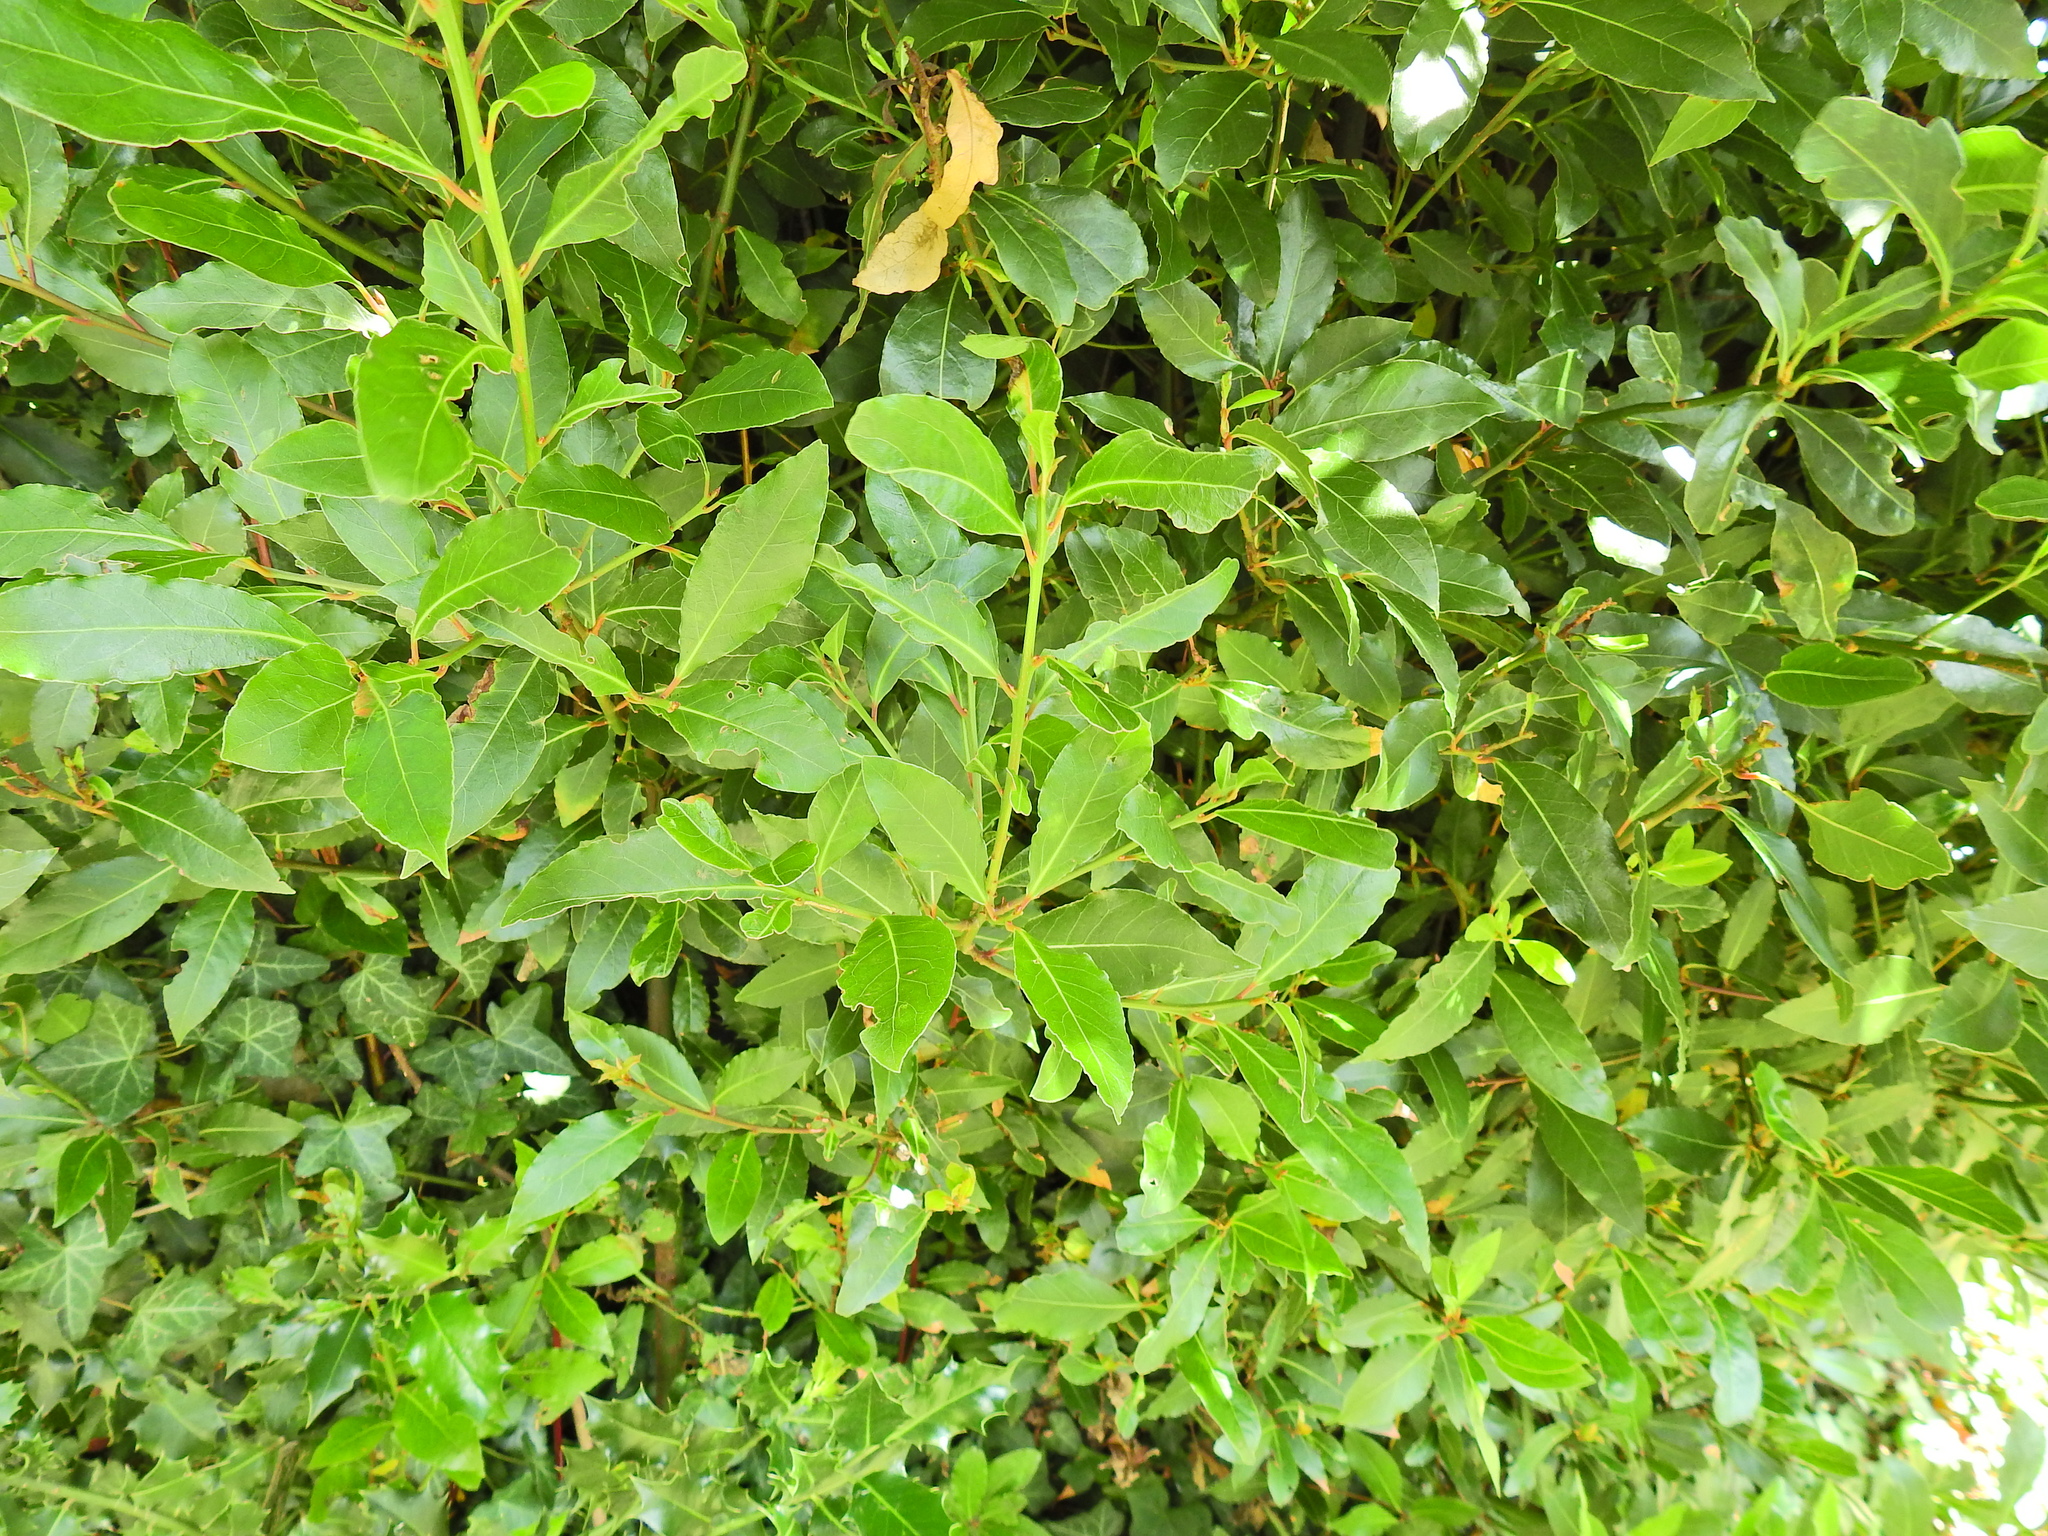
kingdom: Plantae
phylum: Tracheophyta
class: Magnoliopsida
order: Laurales
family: Lauraceae
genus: Laurus
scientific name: Laurus nobilis
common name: Bay
